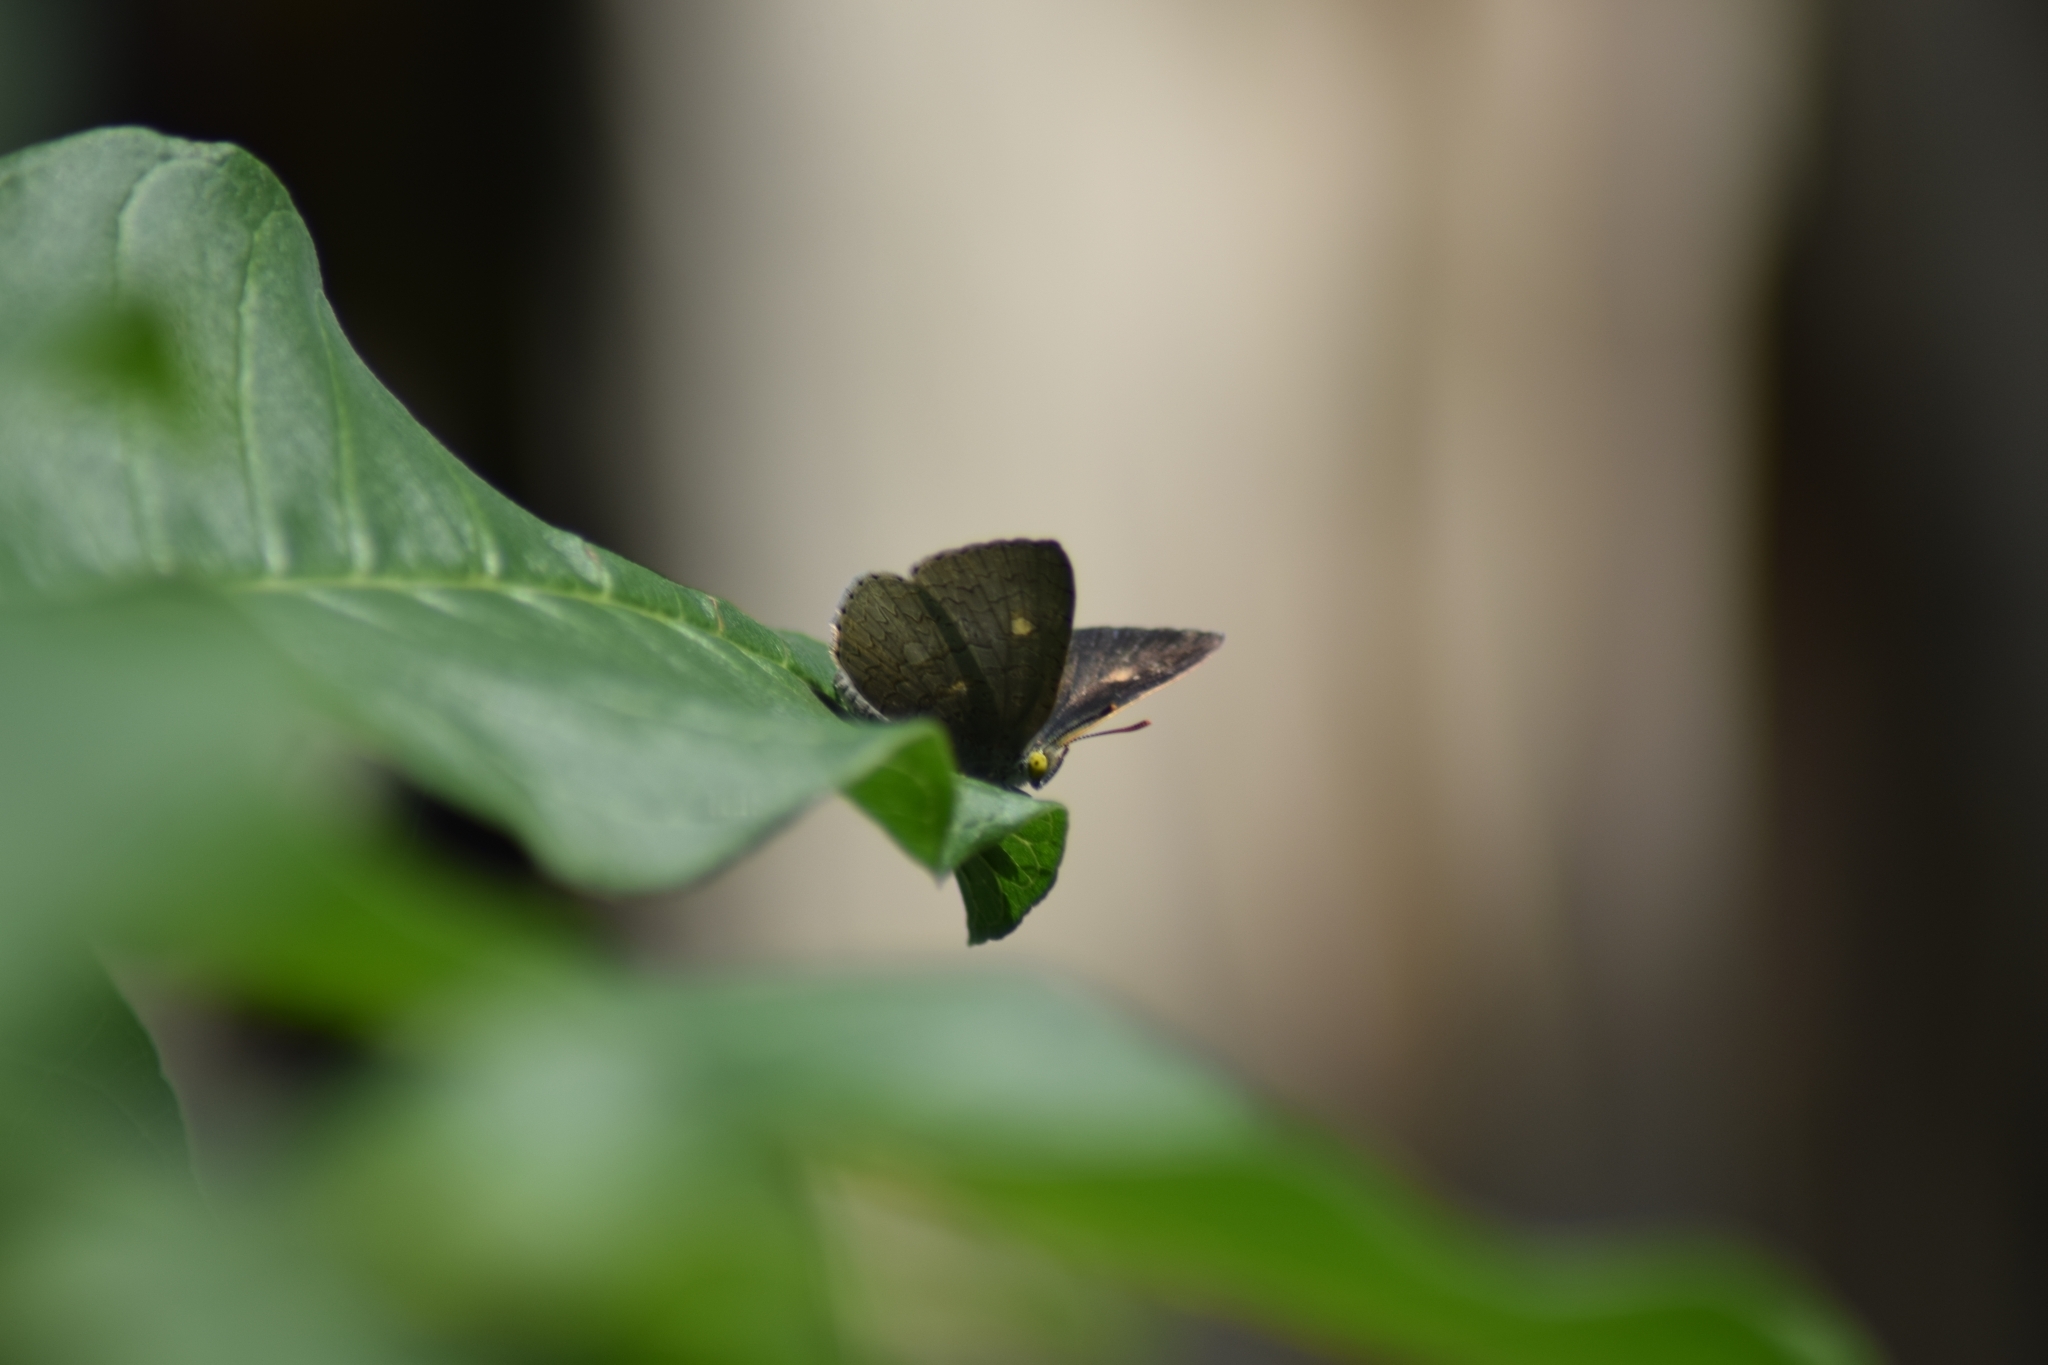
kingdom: Animalia
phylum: Arthropoda
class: Insecta
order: Lepidoptera
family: Lycaenidae
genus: Spalgis
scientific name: Spalgis epius
